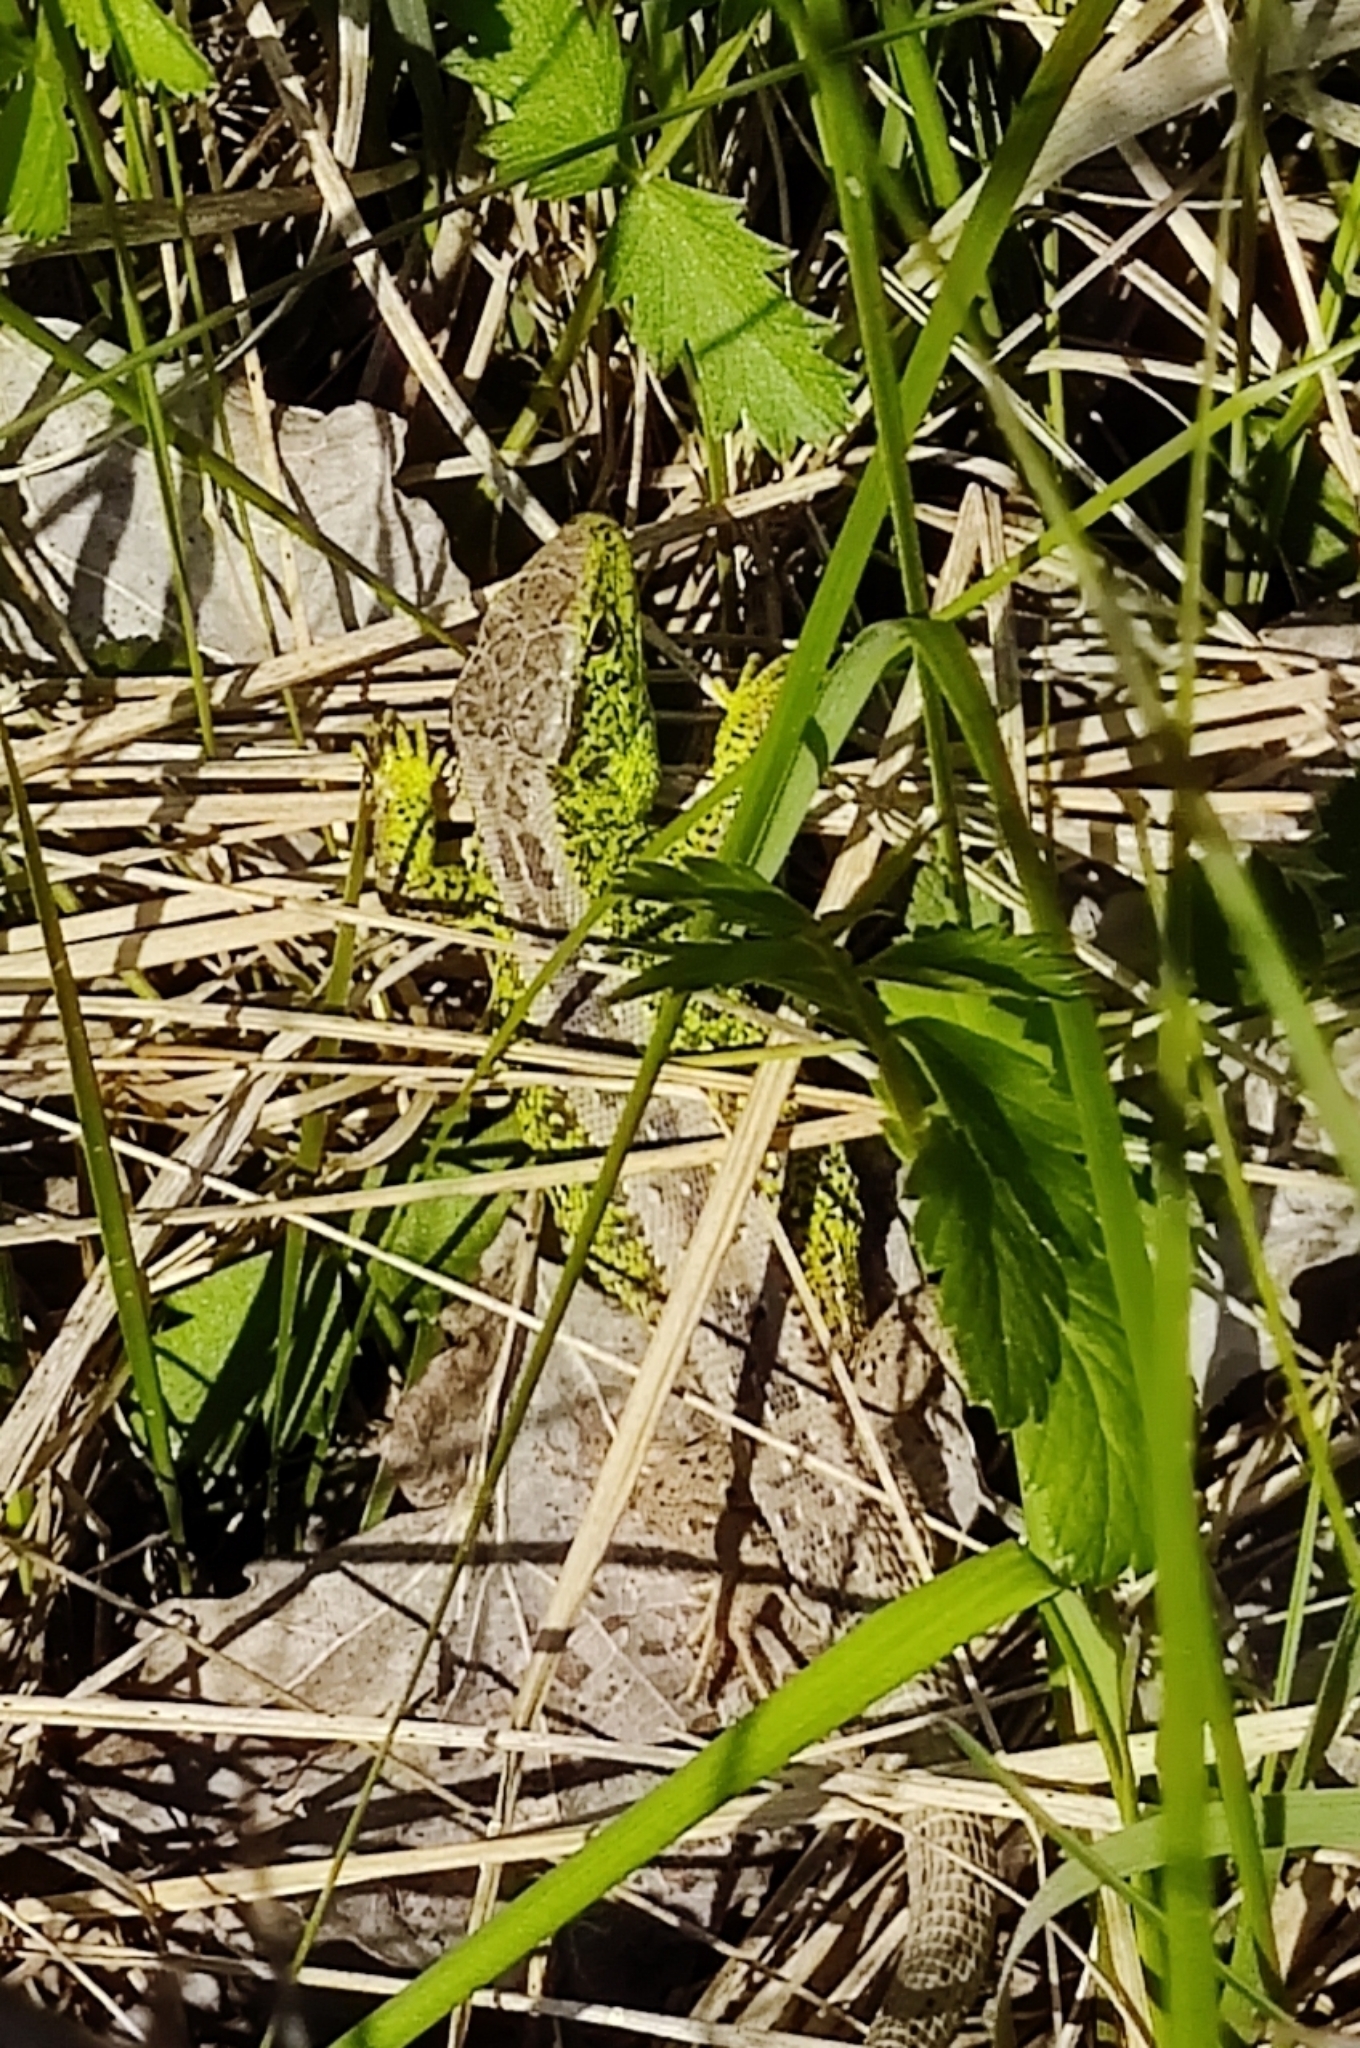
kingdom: Animalia
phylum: Chordata
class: Squamata
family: Lacertidae
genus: Lacerta
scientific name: Lacerta agilis
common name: Sand lizard
